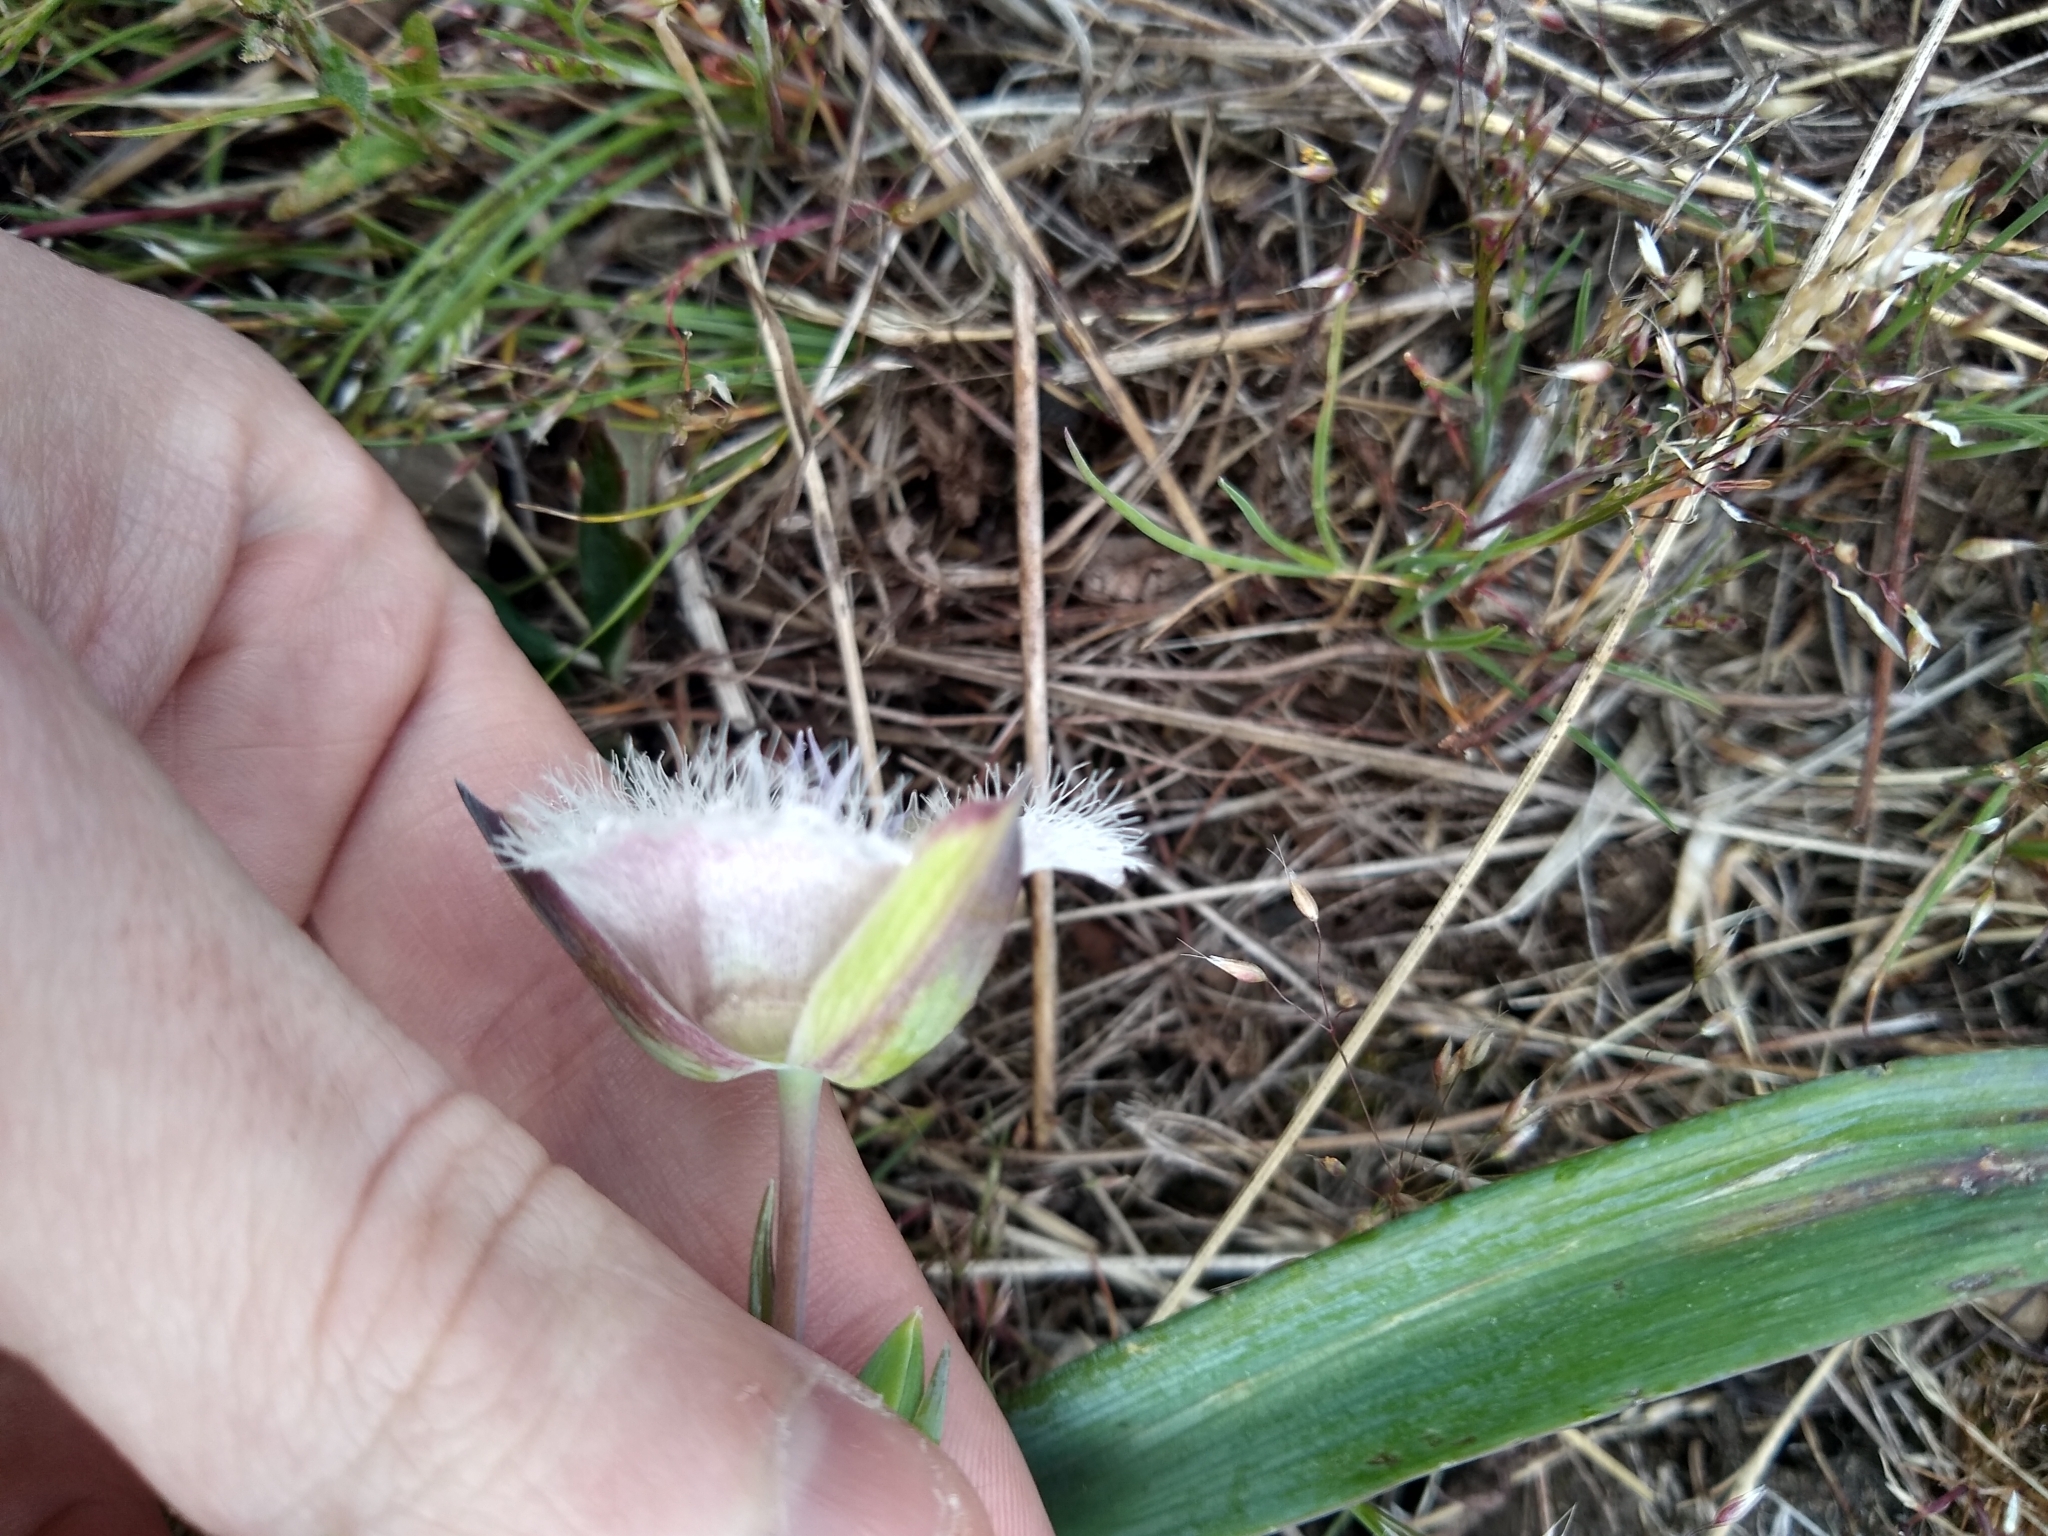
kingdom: Plantae
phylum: Tracheophyta
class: Liliopsida
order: Liliales
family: Liliaceae
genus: Calochortus
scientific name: Calochortus tolmiei
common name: Pussy-ears
